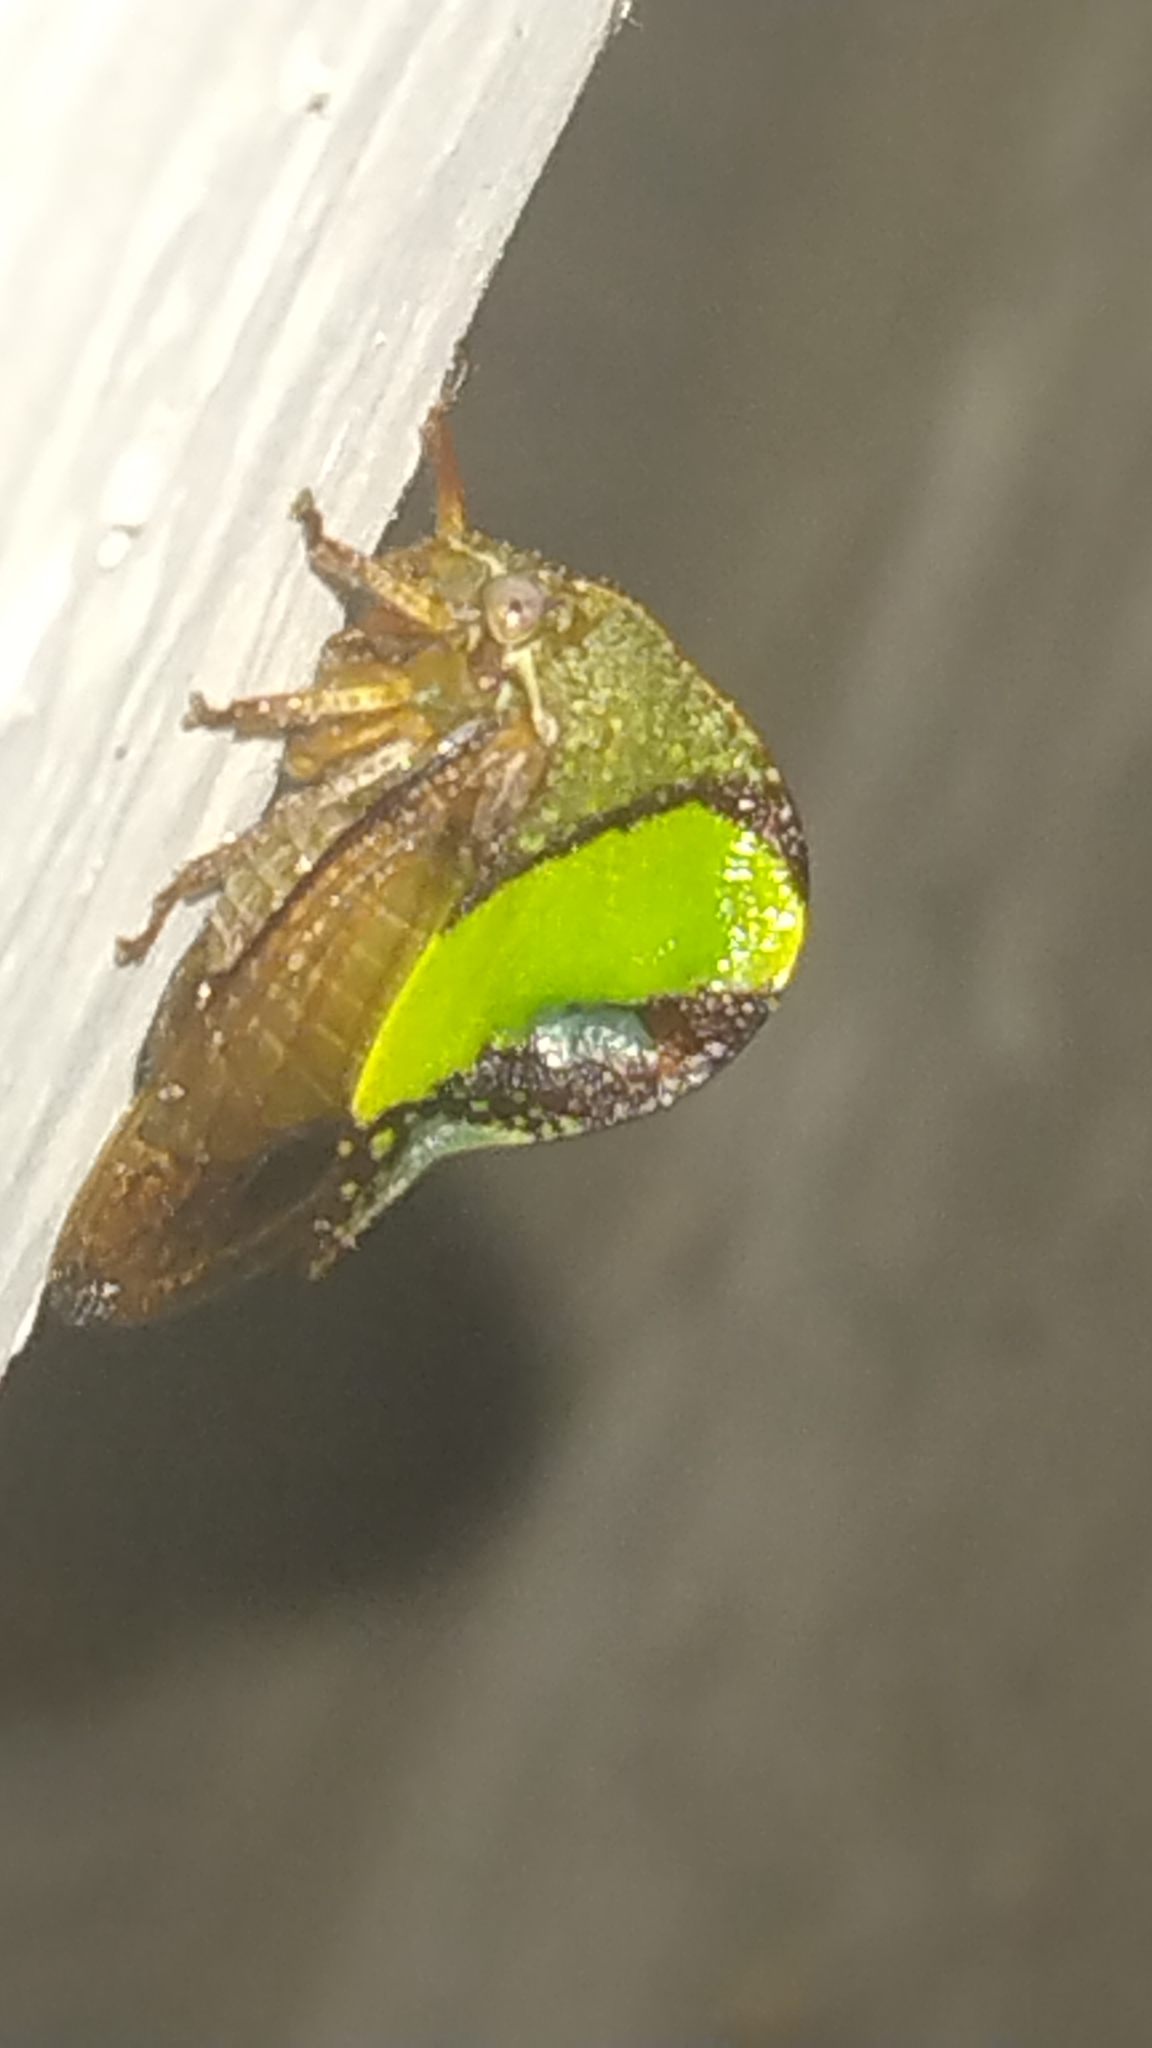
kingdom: Animalia
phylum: Arthropoda
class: Insecta
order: Hemiptera
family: Membracidae
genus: Smilia
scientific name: Smilia camelus
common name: Camel treehopper
